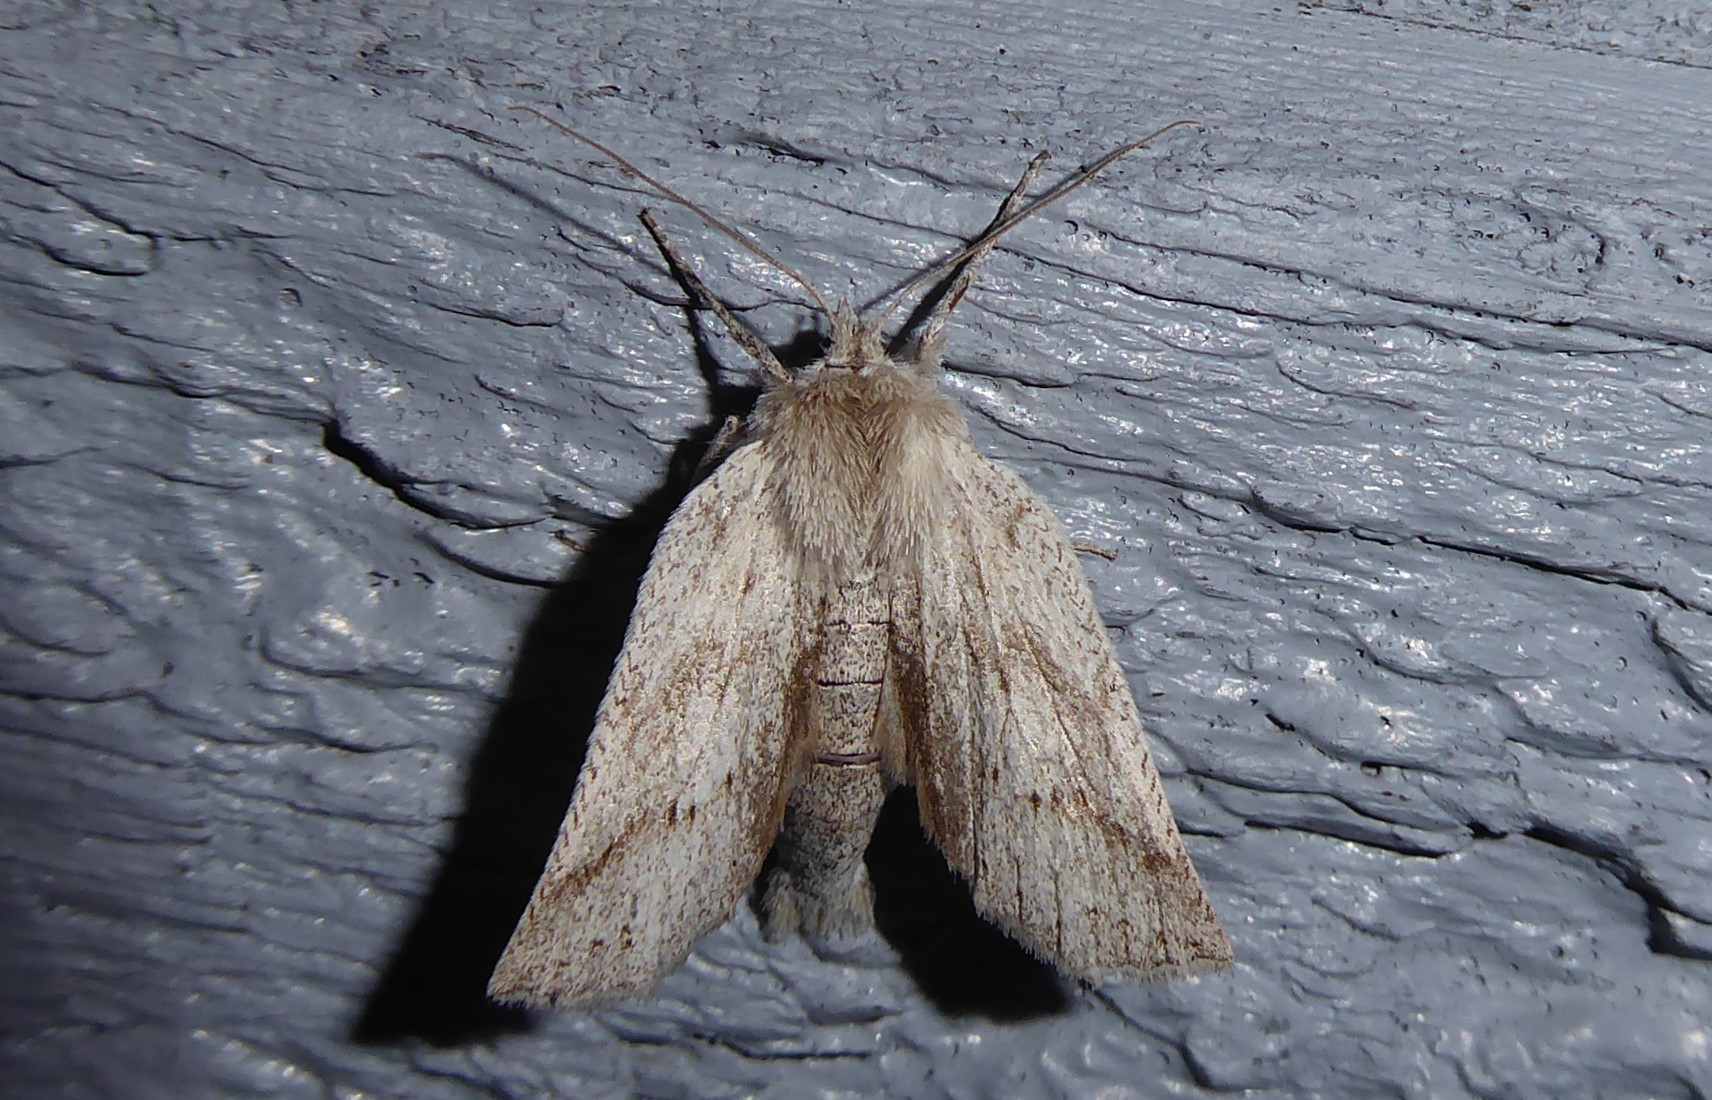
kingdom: Animalia
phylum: Arthropoda
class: Insecta
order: Lepidoptera
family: Geometridae
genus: Declana
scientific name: Declana leptomera
